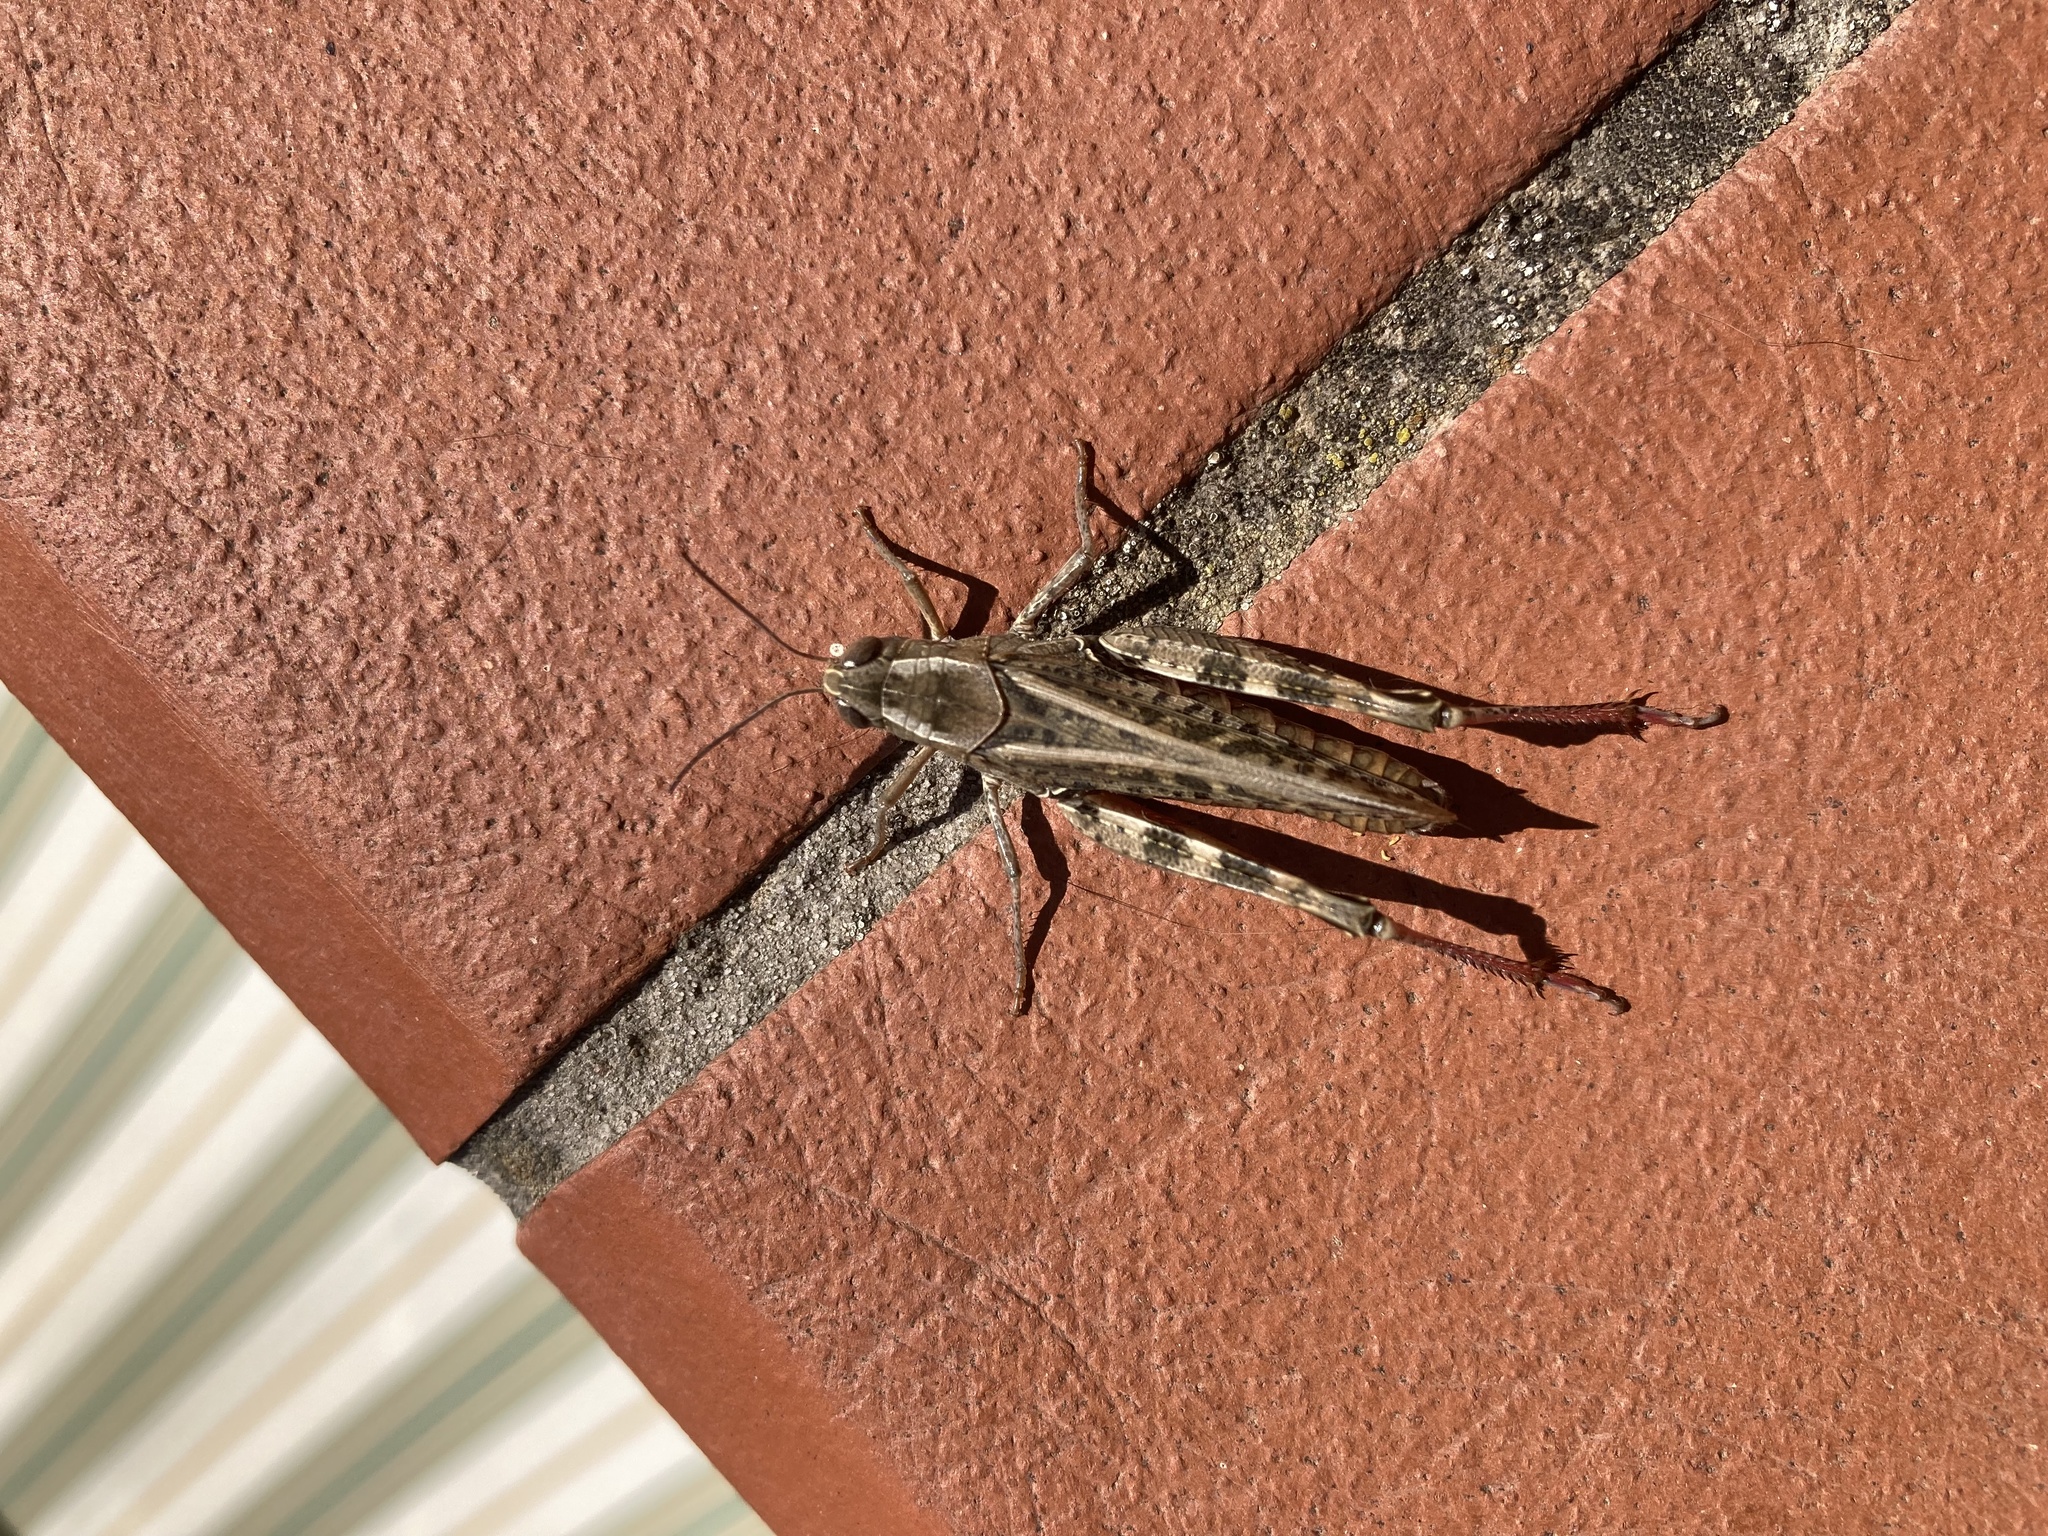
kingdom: Animalia
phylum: Arthropoda
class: Insecta
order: Orthoptera
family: Acrididae
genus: Calliptamus
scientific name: Calliptamus italicus
